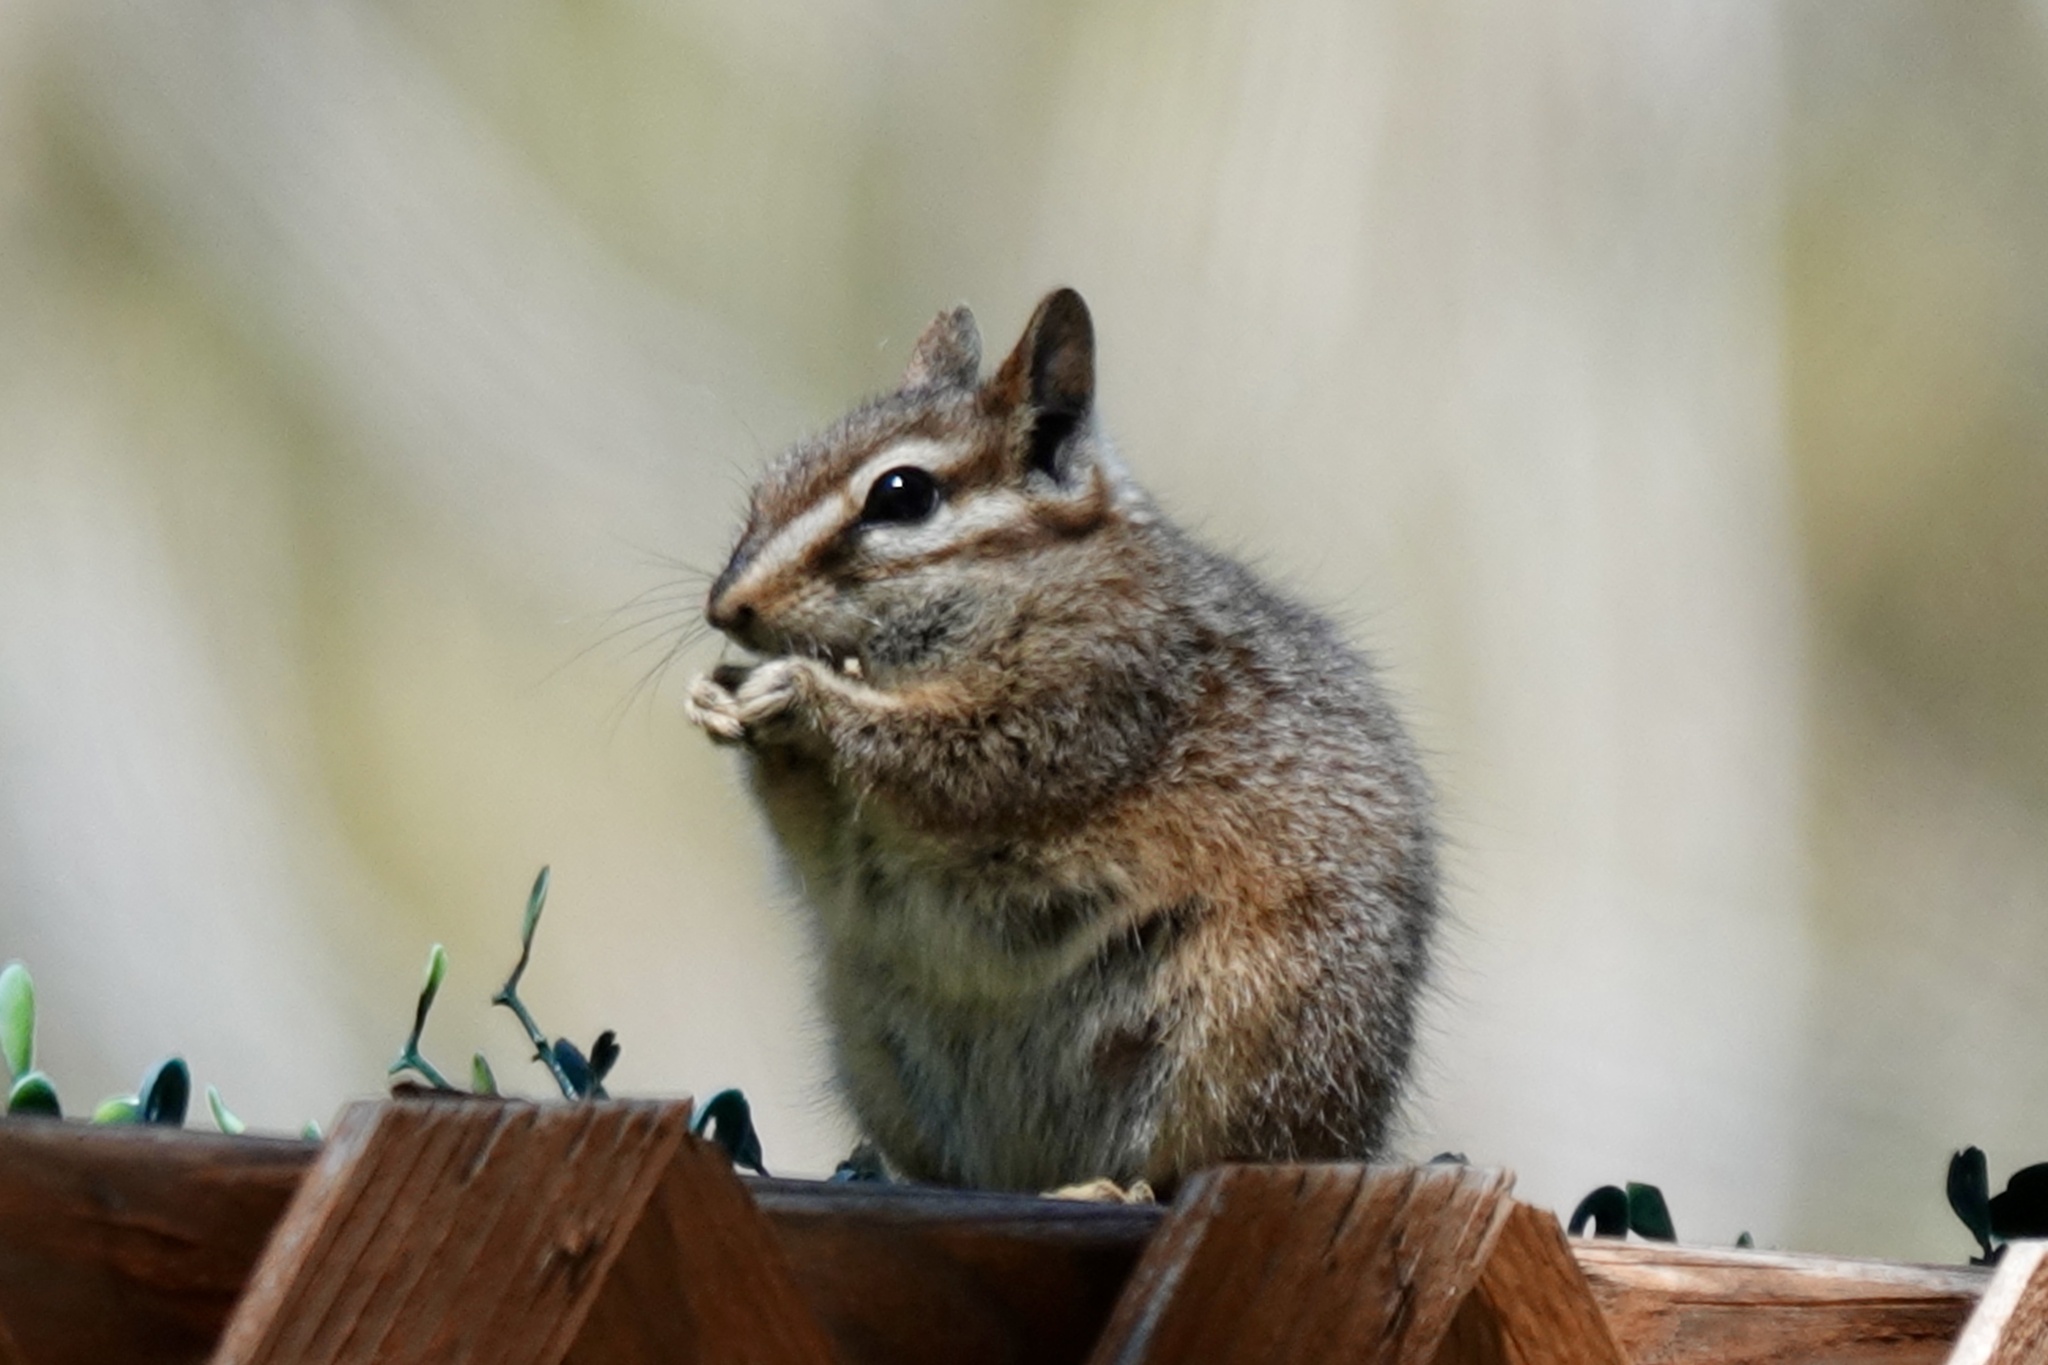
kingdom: Animalia
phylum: Chordata
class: Mammalia
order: Rodentia
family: Sciuridae
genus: Tamias
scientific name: Tamias dorsalis
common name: Cliff chipmunk
